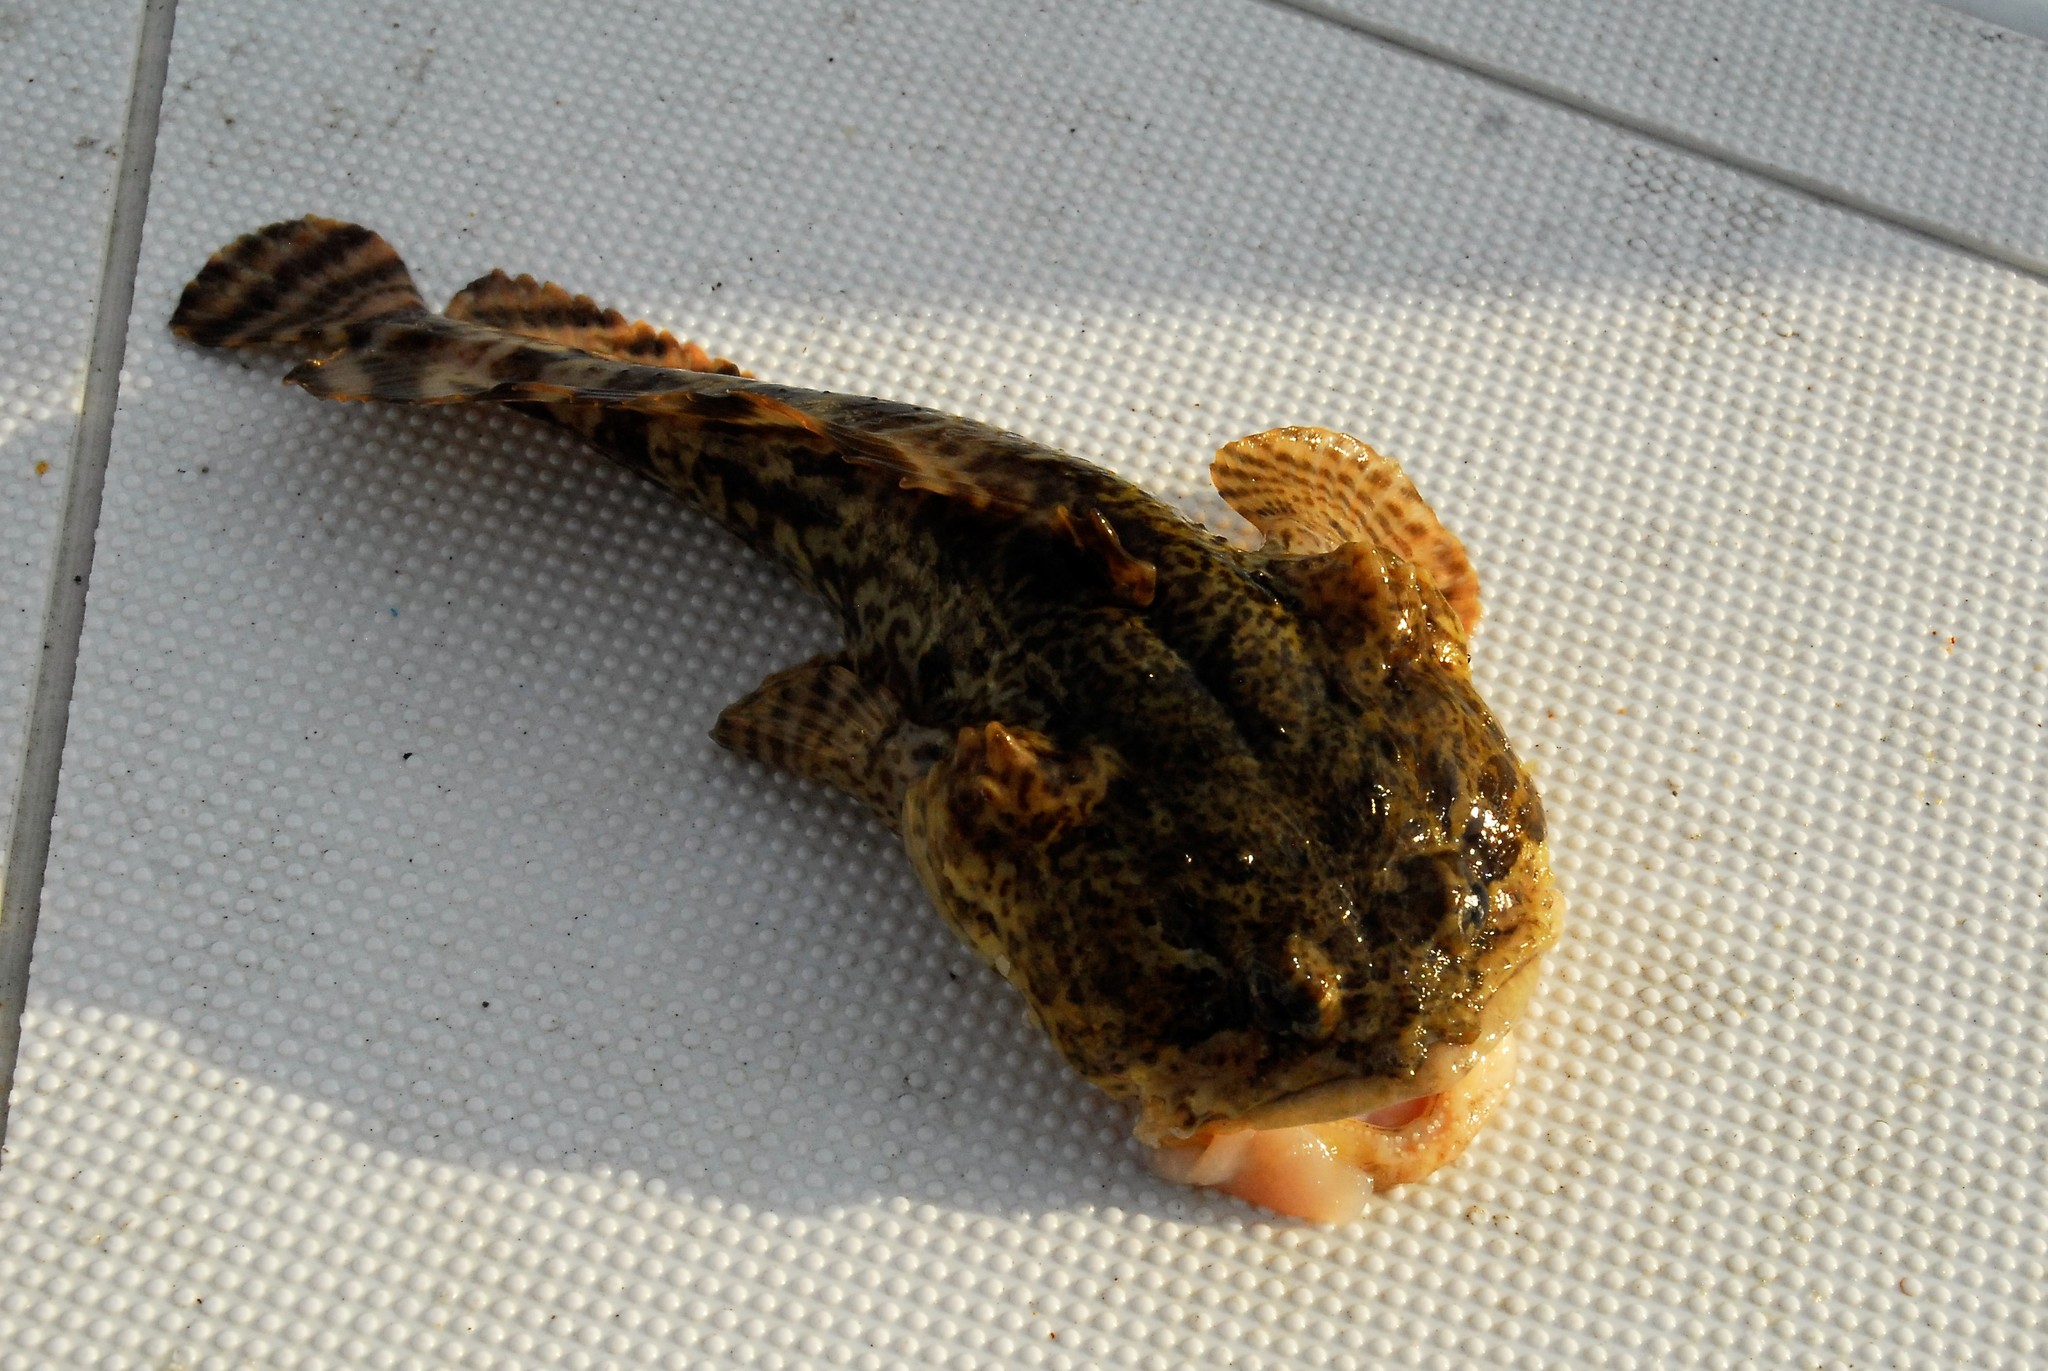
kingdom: Animalia
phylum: Chordata
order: Batrachoidiformes
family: Batrachoididae
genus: Opsanus
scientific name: Opsanus tau
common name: Oyster toadfish
